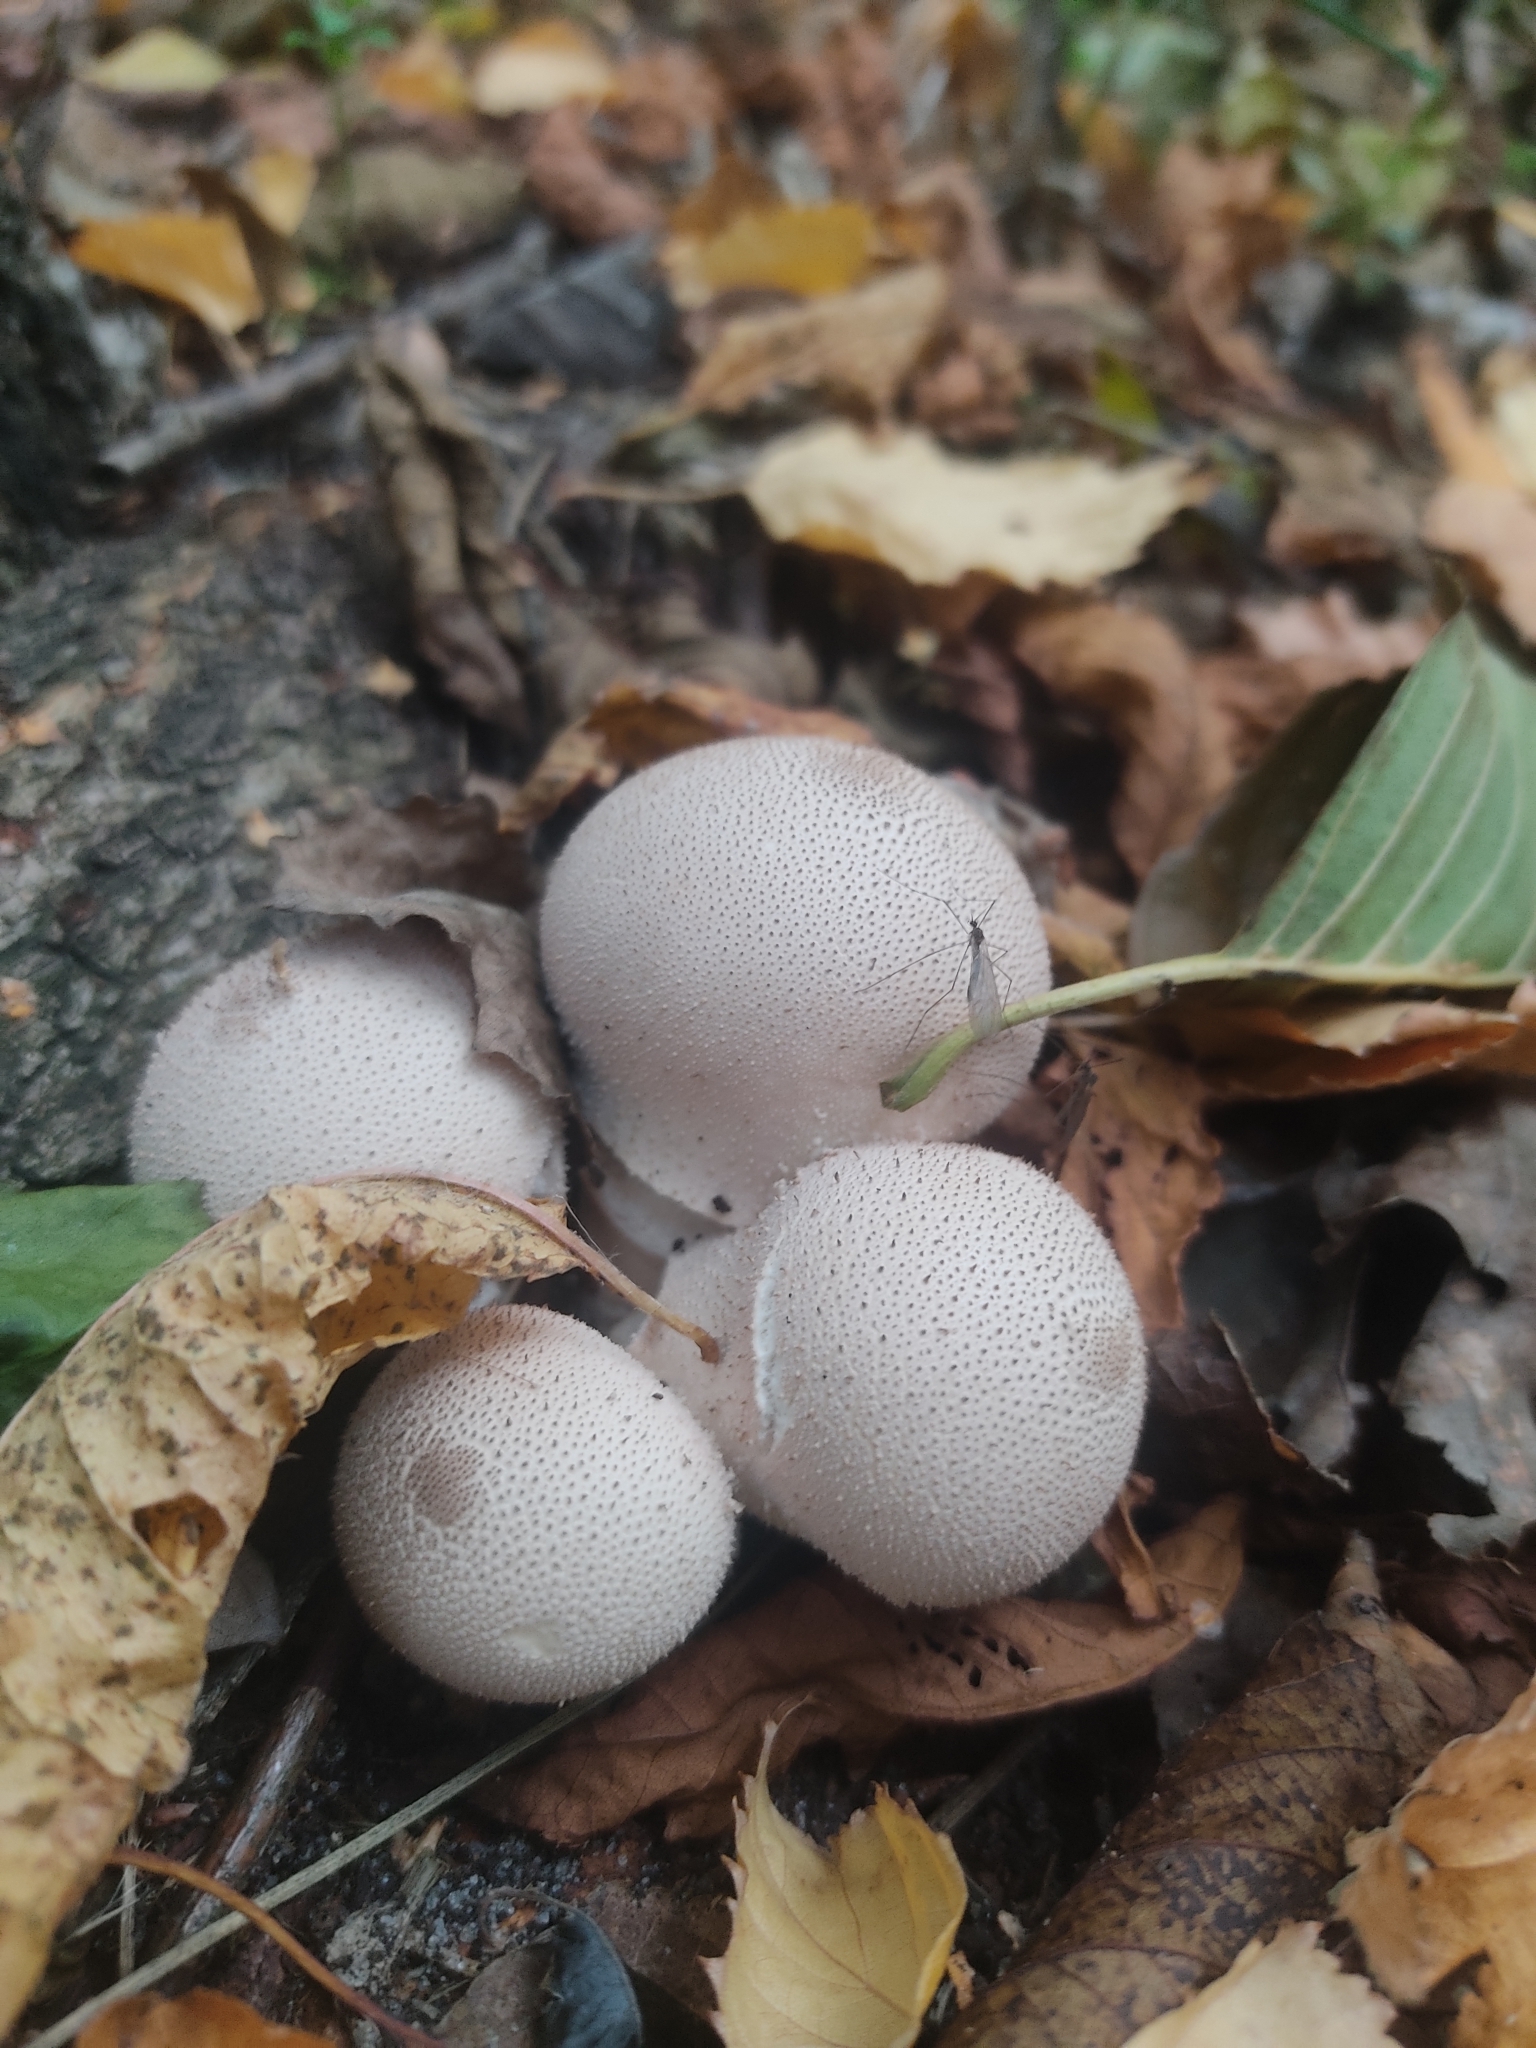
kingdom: Fungi
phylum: Basidiomycota
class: Agaricomycetes
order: Agaricales
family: Lycoperdaceae
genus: Lycoperdon
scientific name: Lycoperdon perlatum
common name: Common puffball
